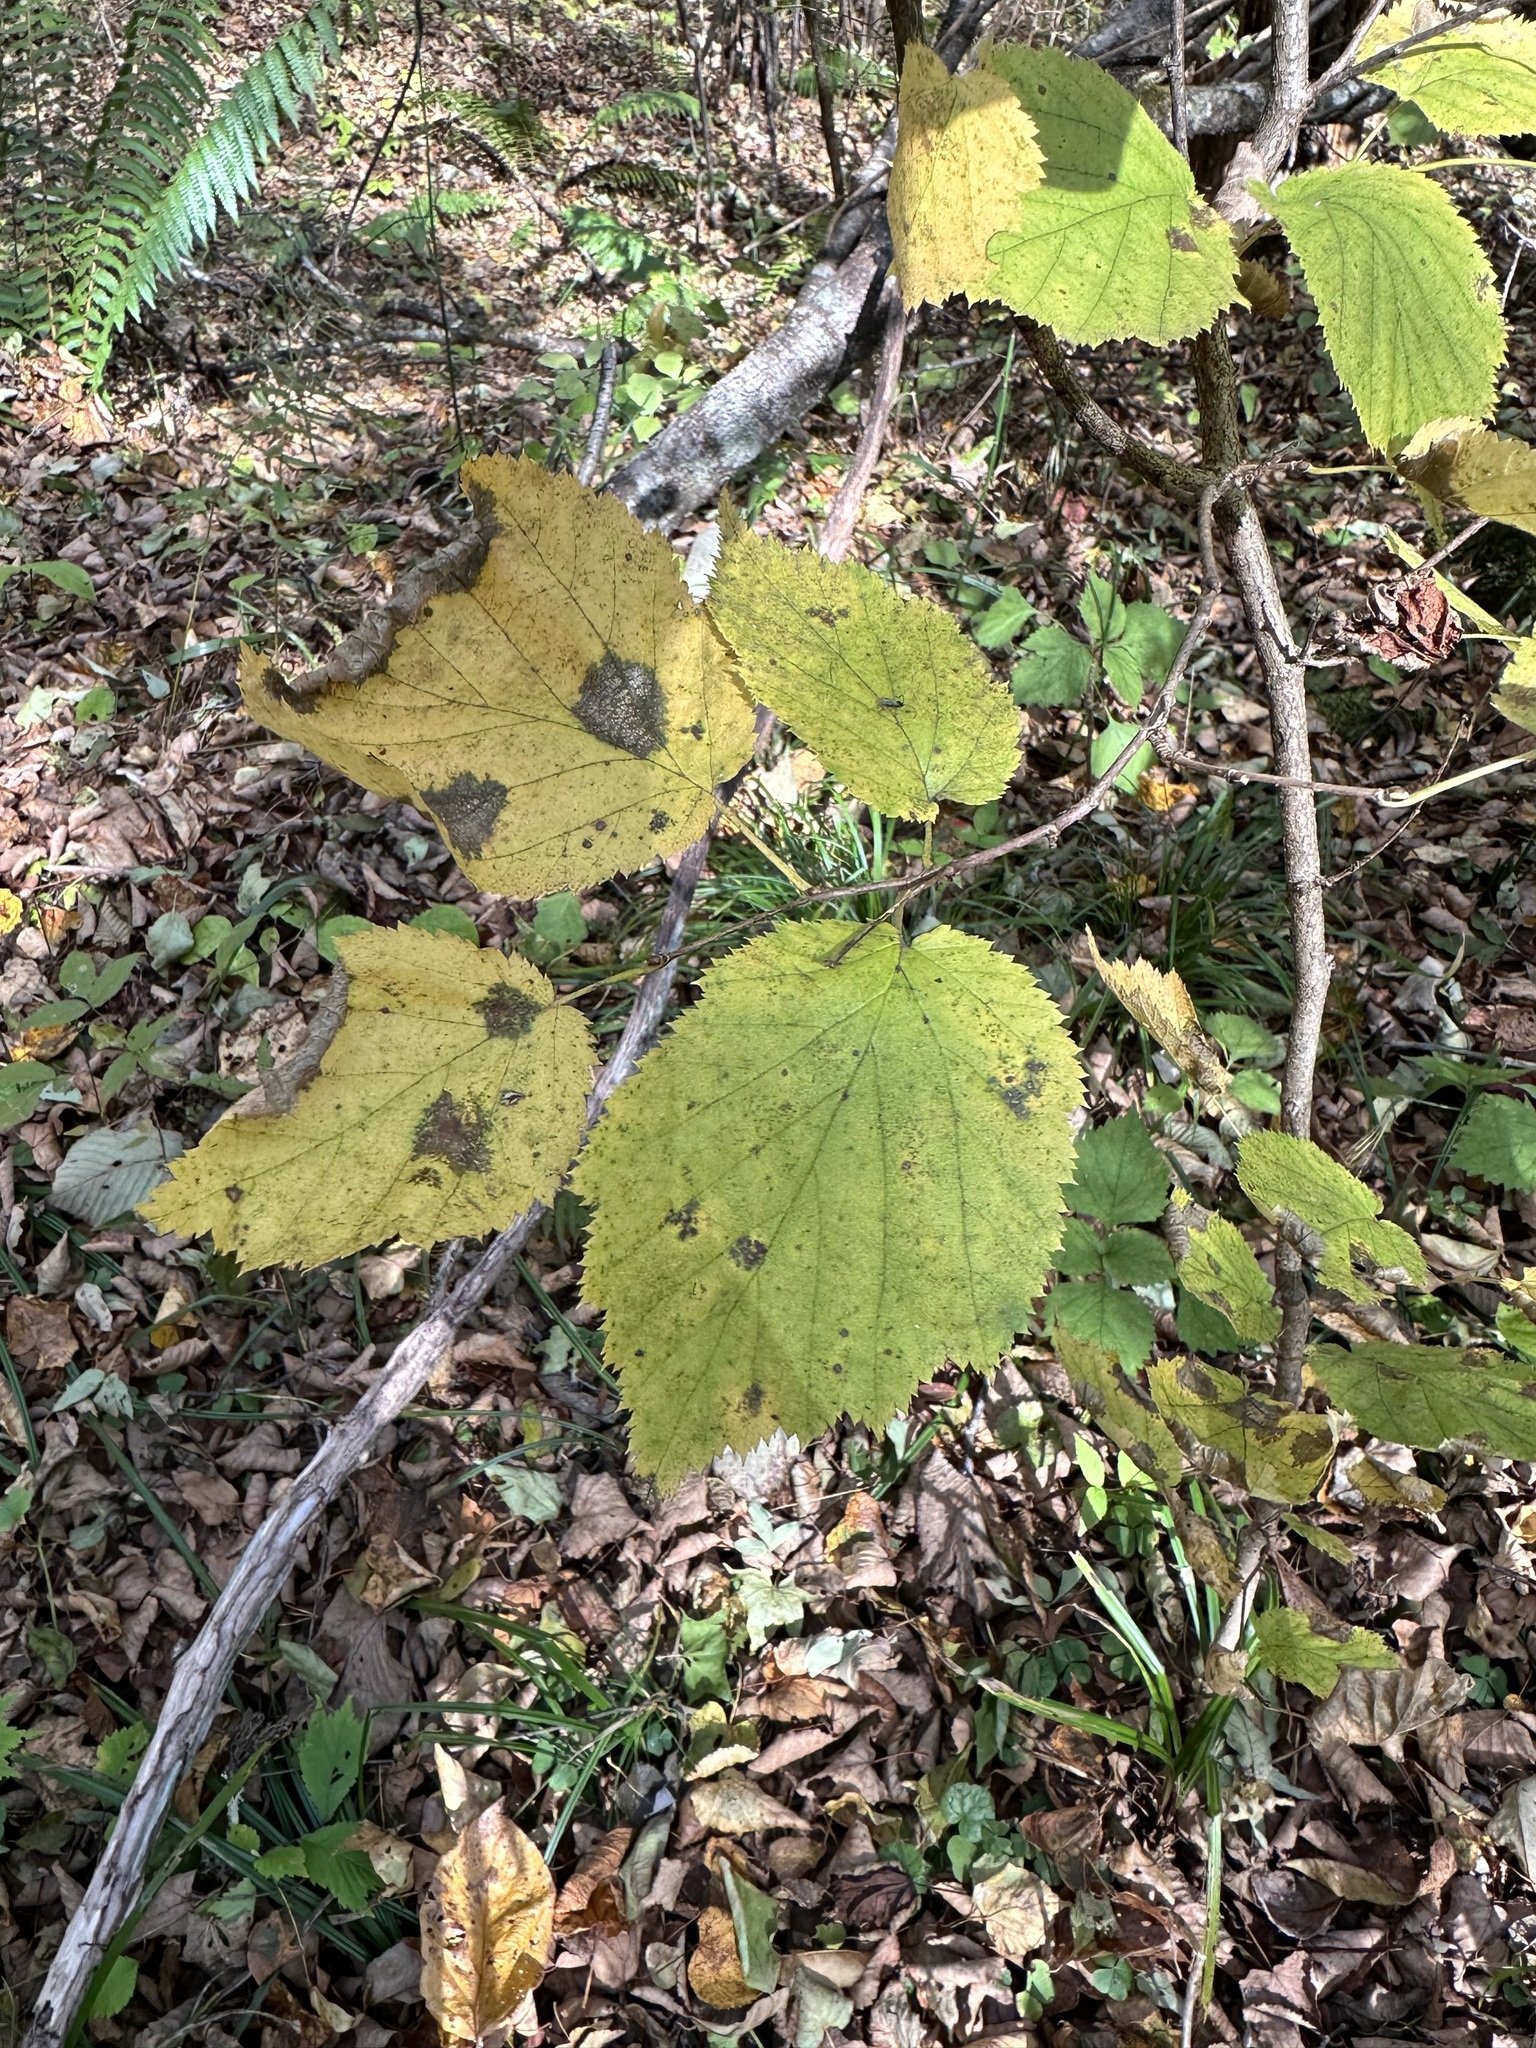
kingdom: Plantae
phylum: Tracheophyta
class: Magnoliopsida
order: Fagales
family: Betulaceae
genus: Corylus
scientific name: Corylus sieboldiana
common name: Japanese hazel
